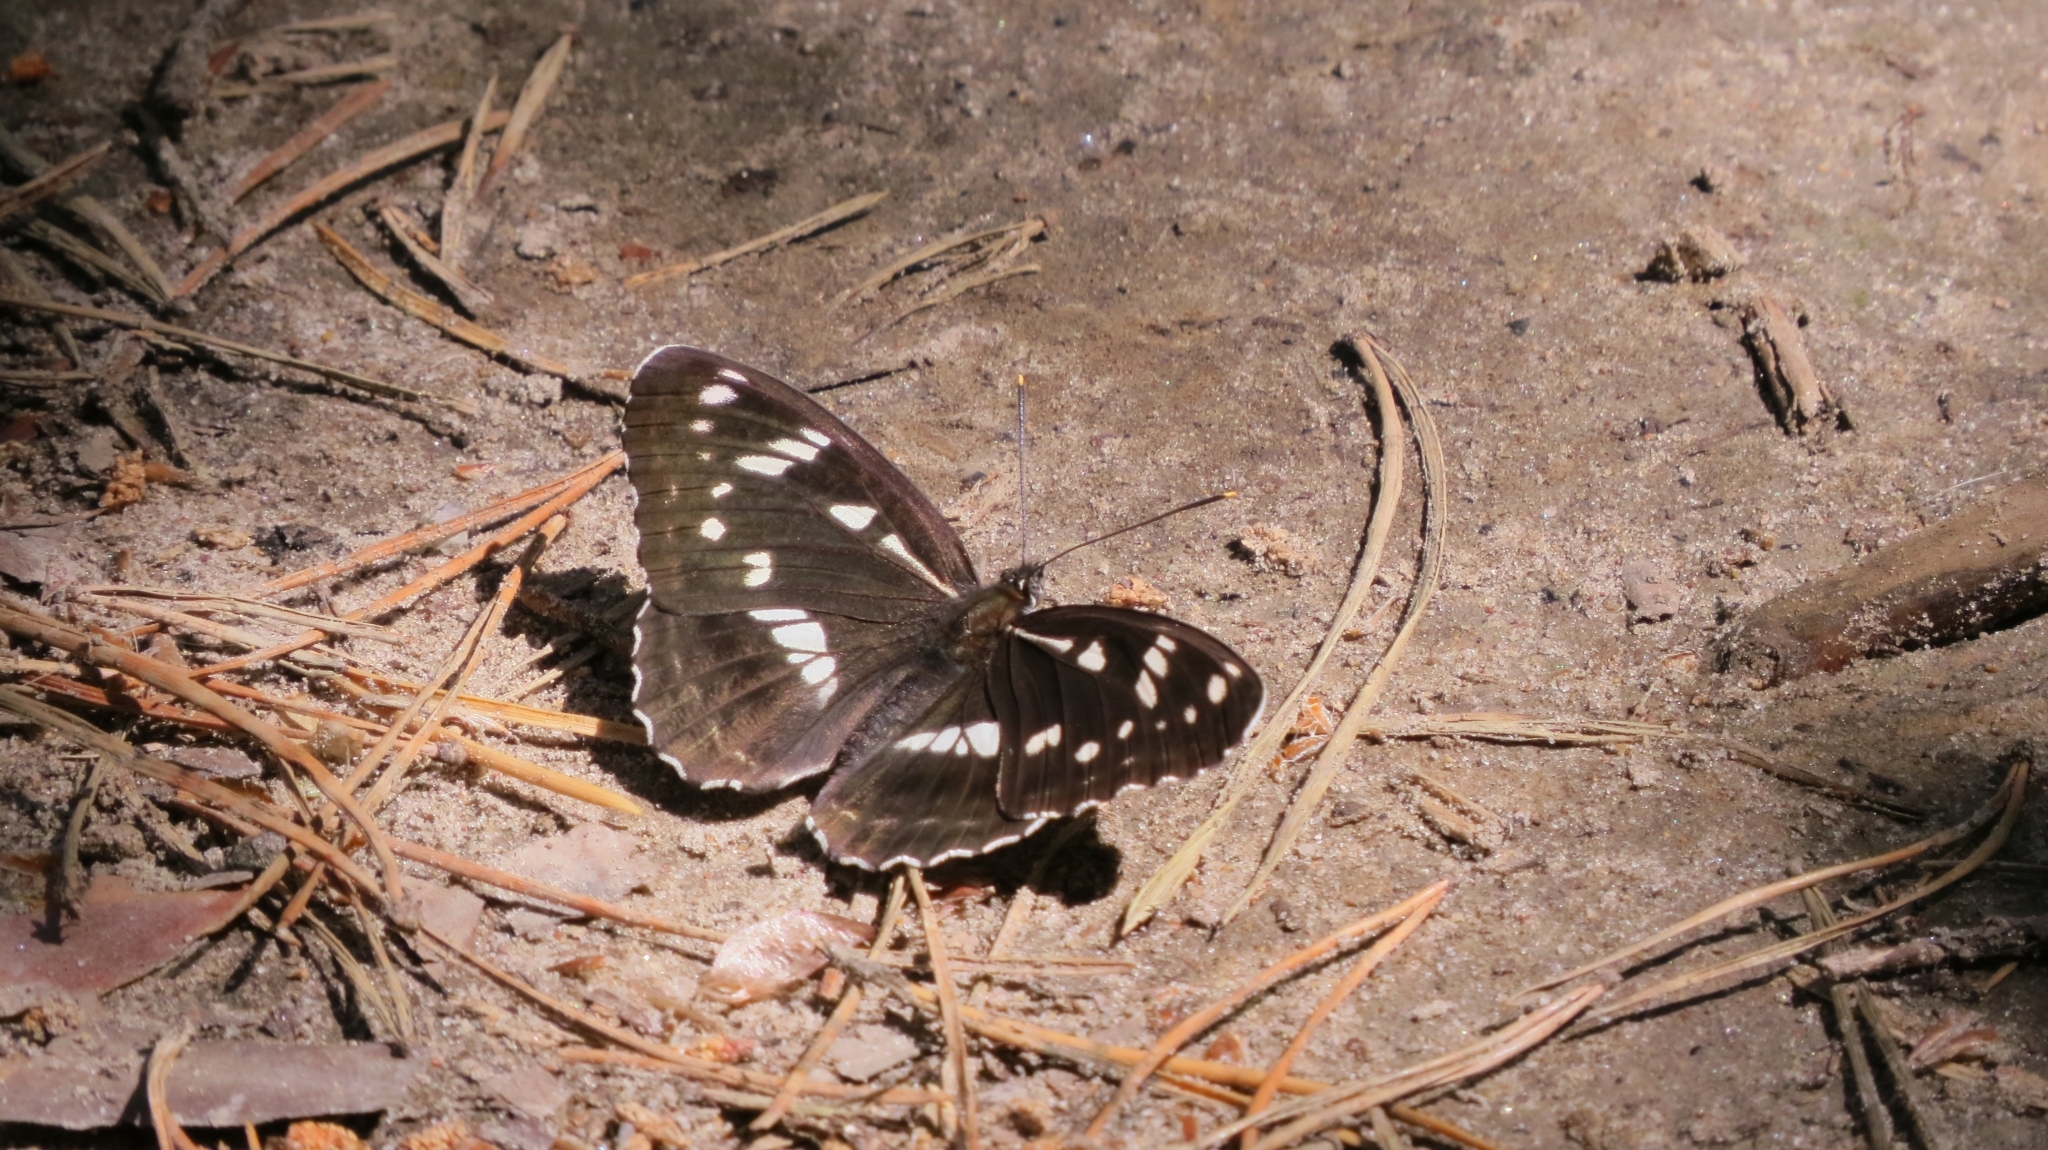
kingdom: Animalia
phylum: Arthropoda
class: Insecta
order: Lepidoptera
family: Nymphalidae
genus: Limenitis
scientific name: Limenitis helmanni
